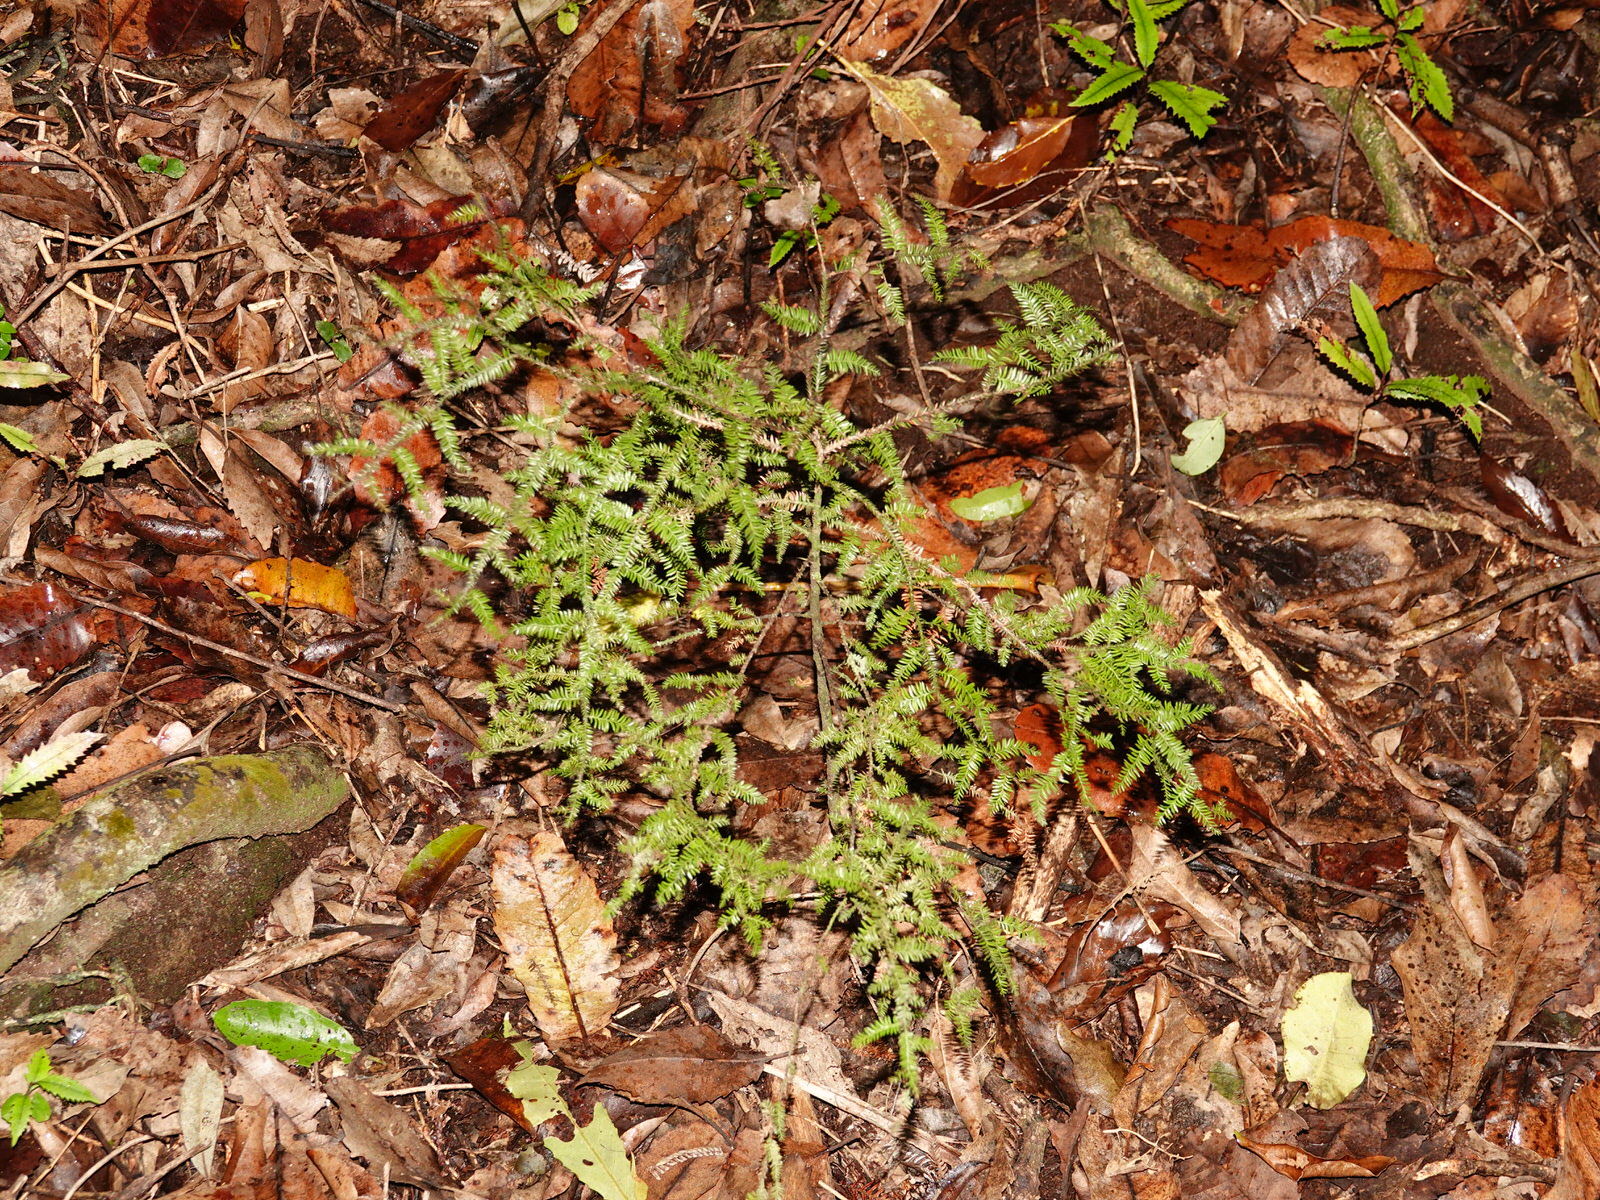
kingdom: Plantae
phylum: Tracheophyta
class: Pinopsida
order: Pinales
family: Podocarpaceae
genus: Dacrycarpus
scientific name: Dacrycarpus dacrydioides
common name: White pine
